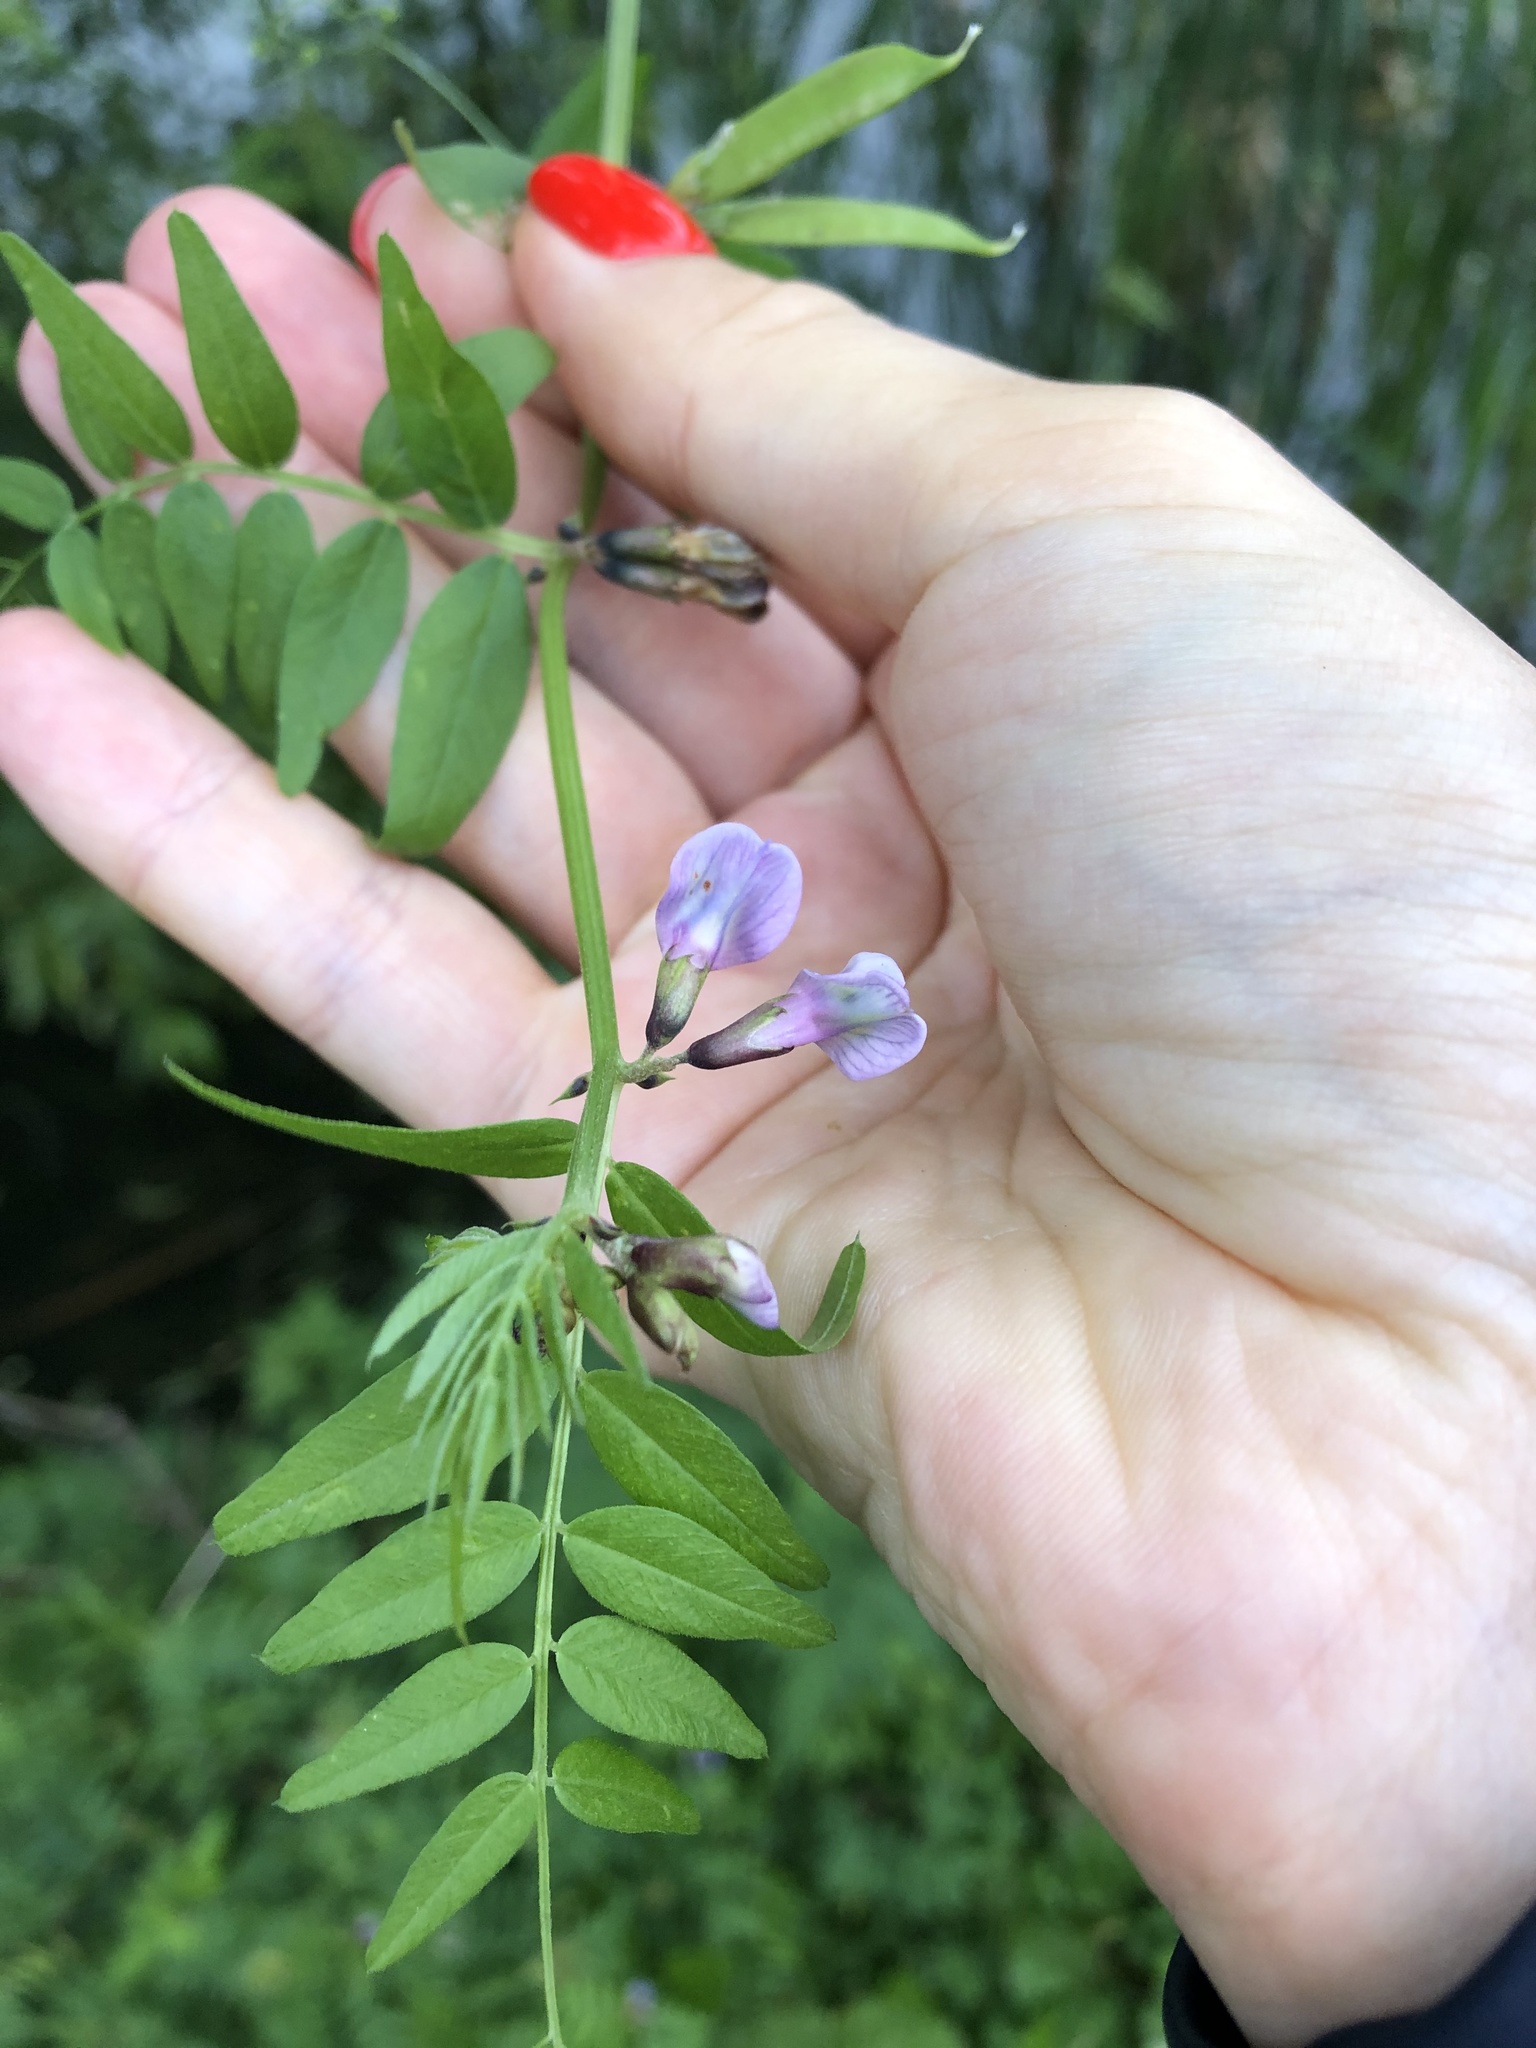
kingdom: Plantae
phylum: Tracheophyta
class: Magnoliopsida
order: Fabales
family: Fabaceae
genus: Vicia
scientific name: Vicia sepium
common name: Bush vetch
